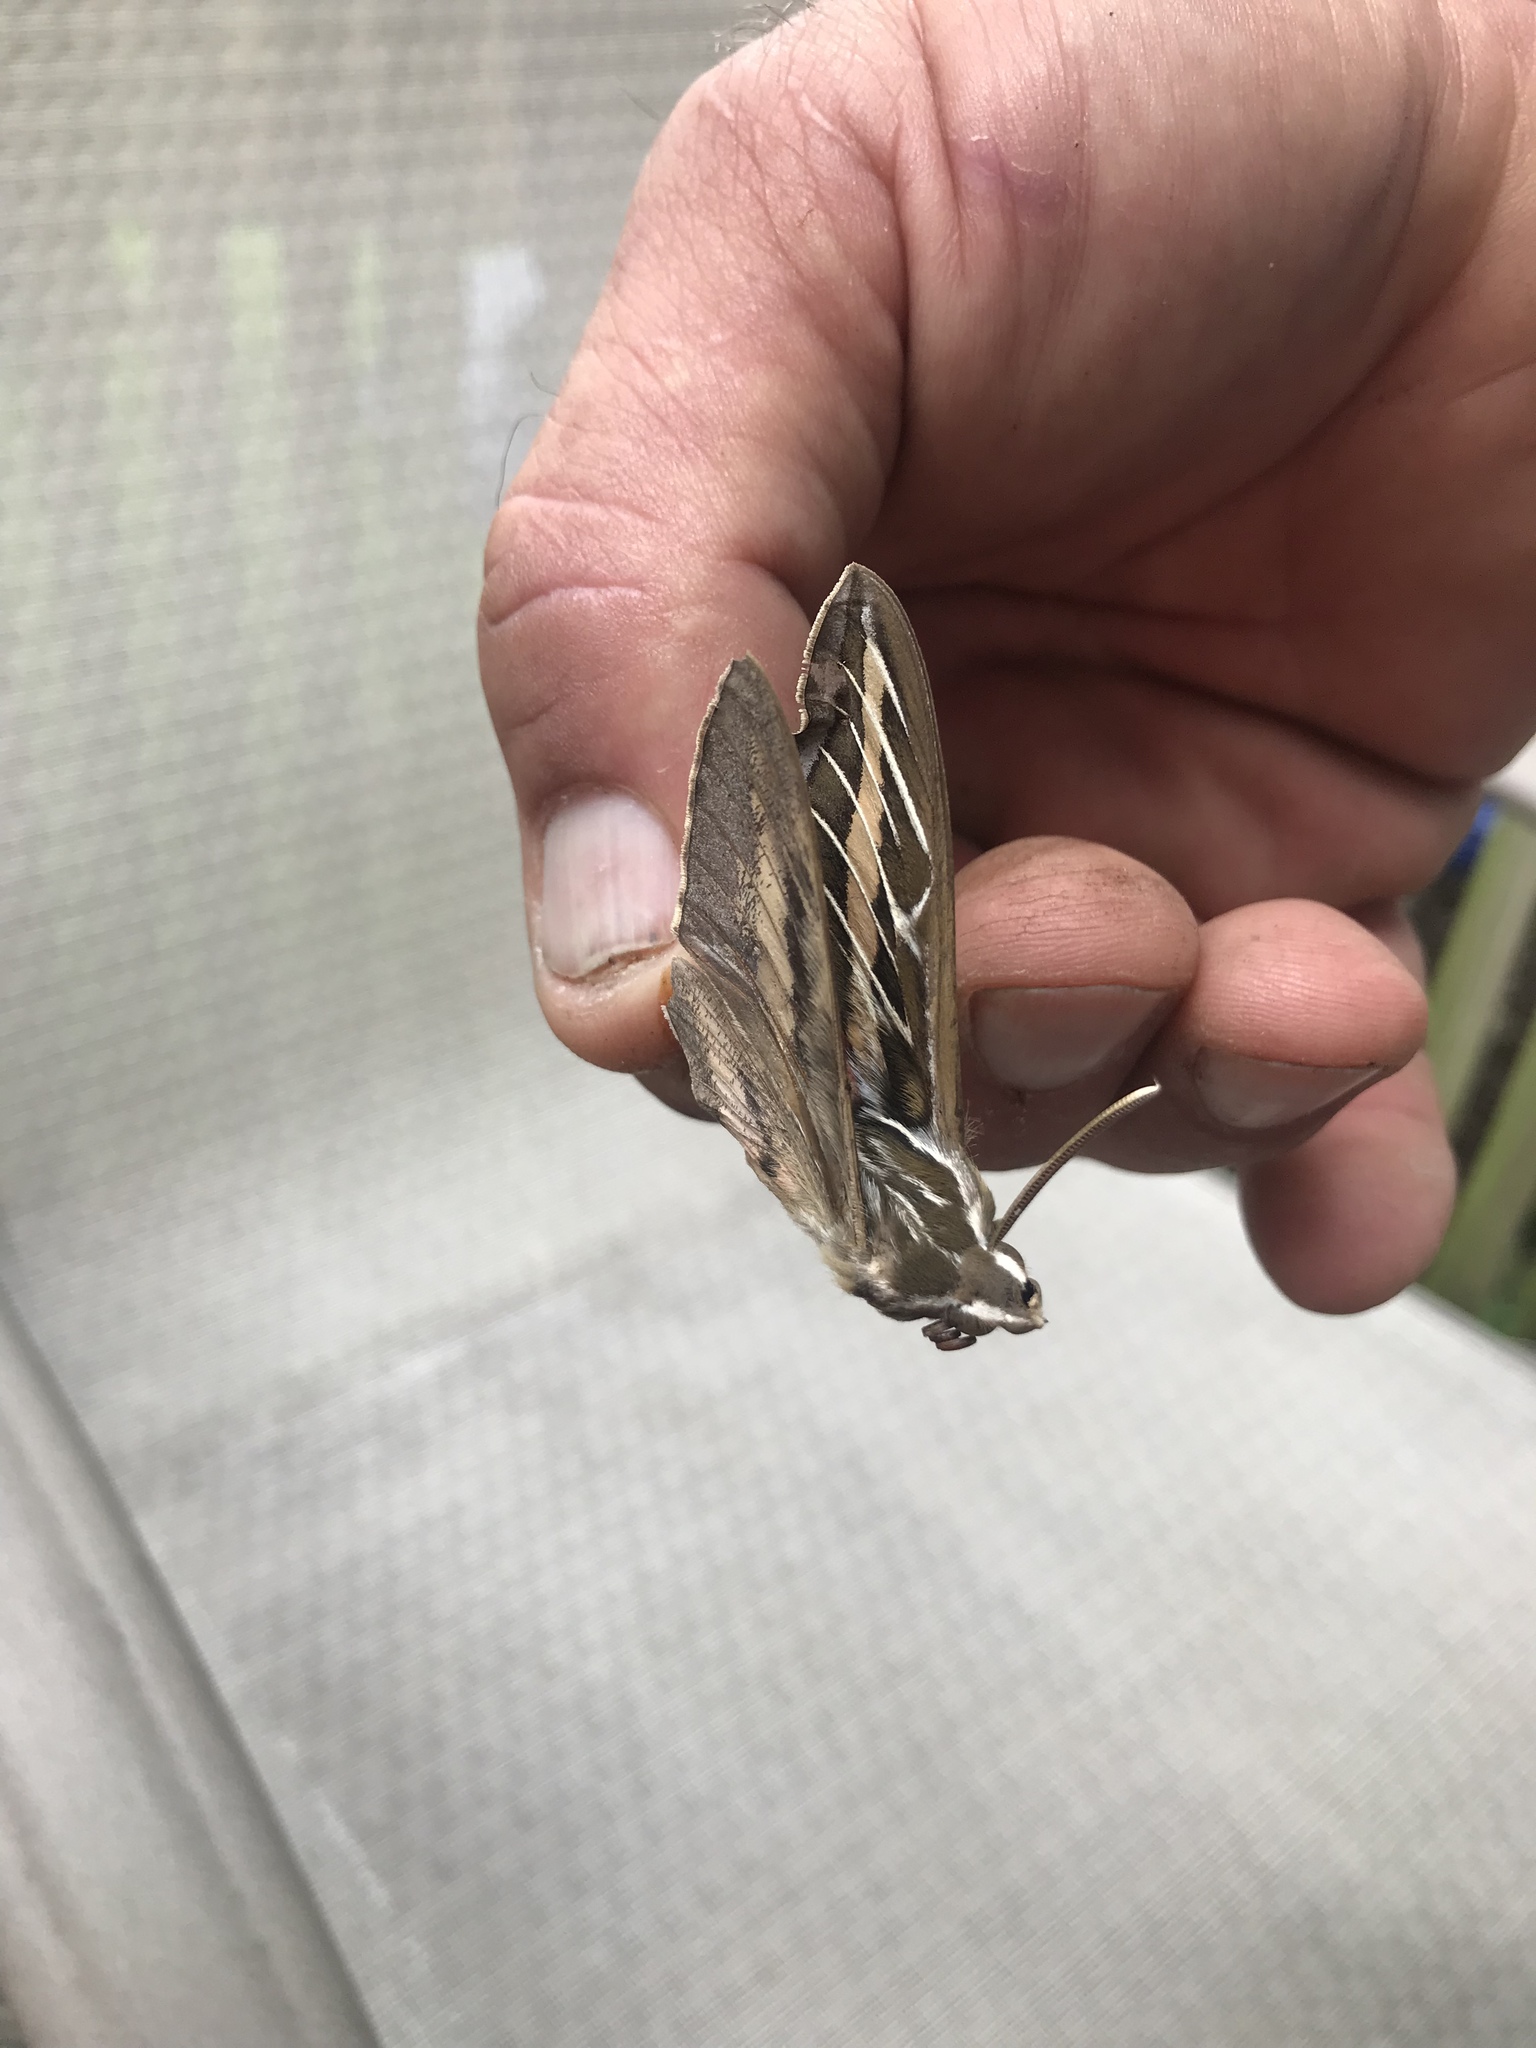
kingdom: Animalia
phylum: Arthropoda
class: Insecta
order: Lepidoptera
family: Sphingidae
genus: Hyles
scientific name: Hyles lineata
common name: White-lined sphinx
